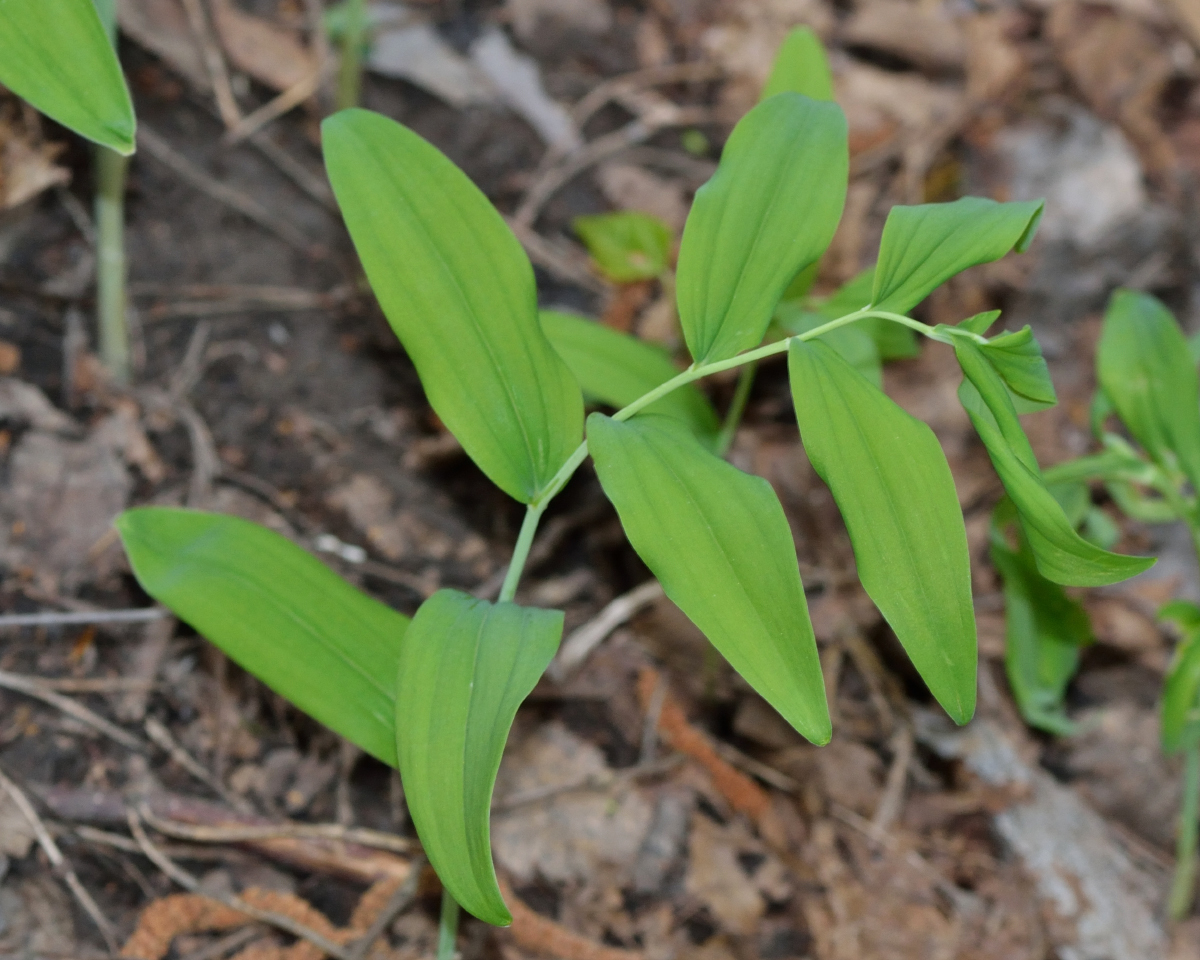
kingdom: Plantae
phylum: Tracheophyta
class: Liliopsida
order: Asparagales
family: Asparagaceae
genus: Polygonatum
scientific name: Polygonatum multiflorum
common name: Solomon's-seal
